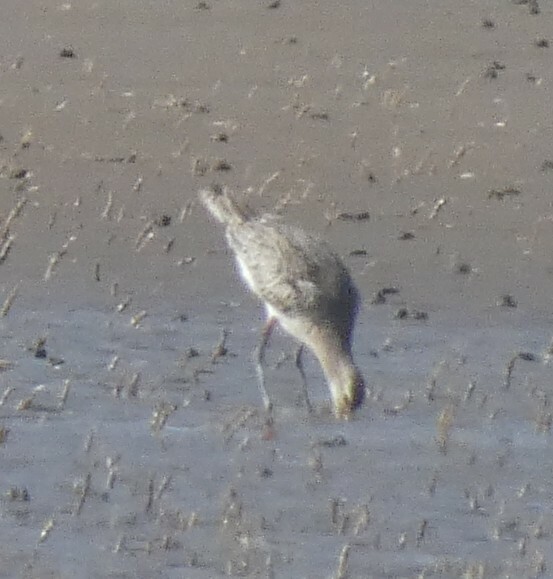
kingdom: Animalia
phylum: Chordata
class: Aves
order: Charadriiformes
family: Scolopacidae
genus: Limosa
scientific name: Limosa lapponica
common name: Bar-tailed godwit
